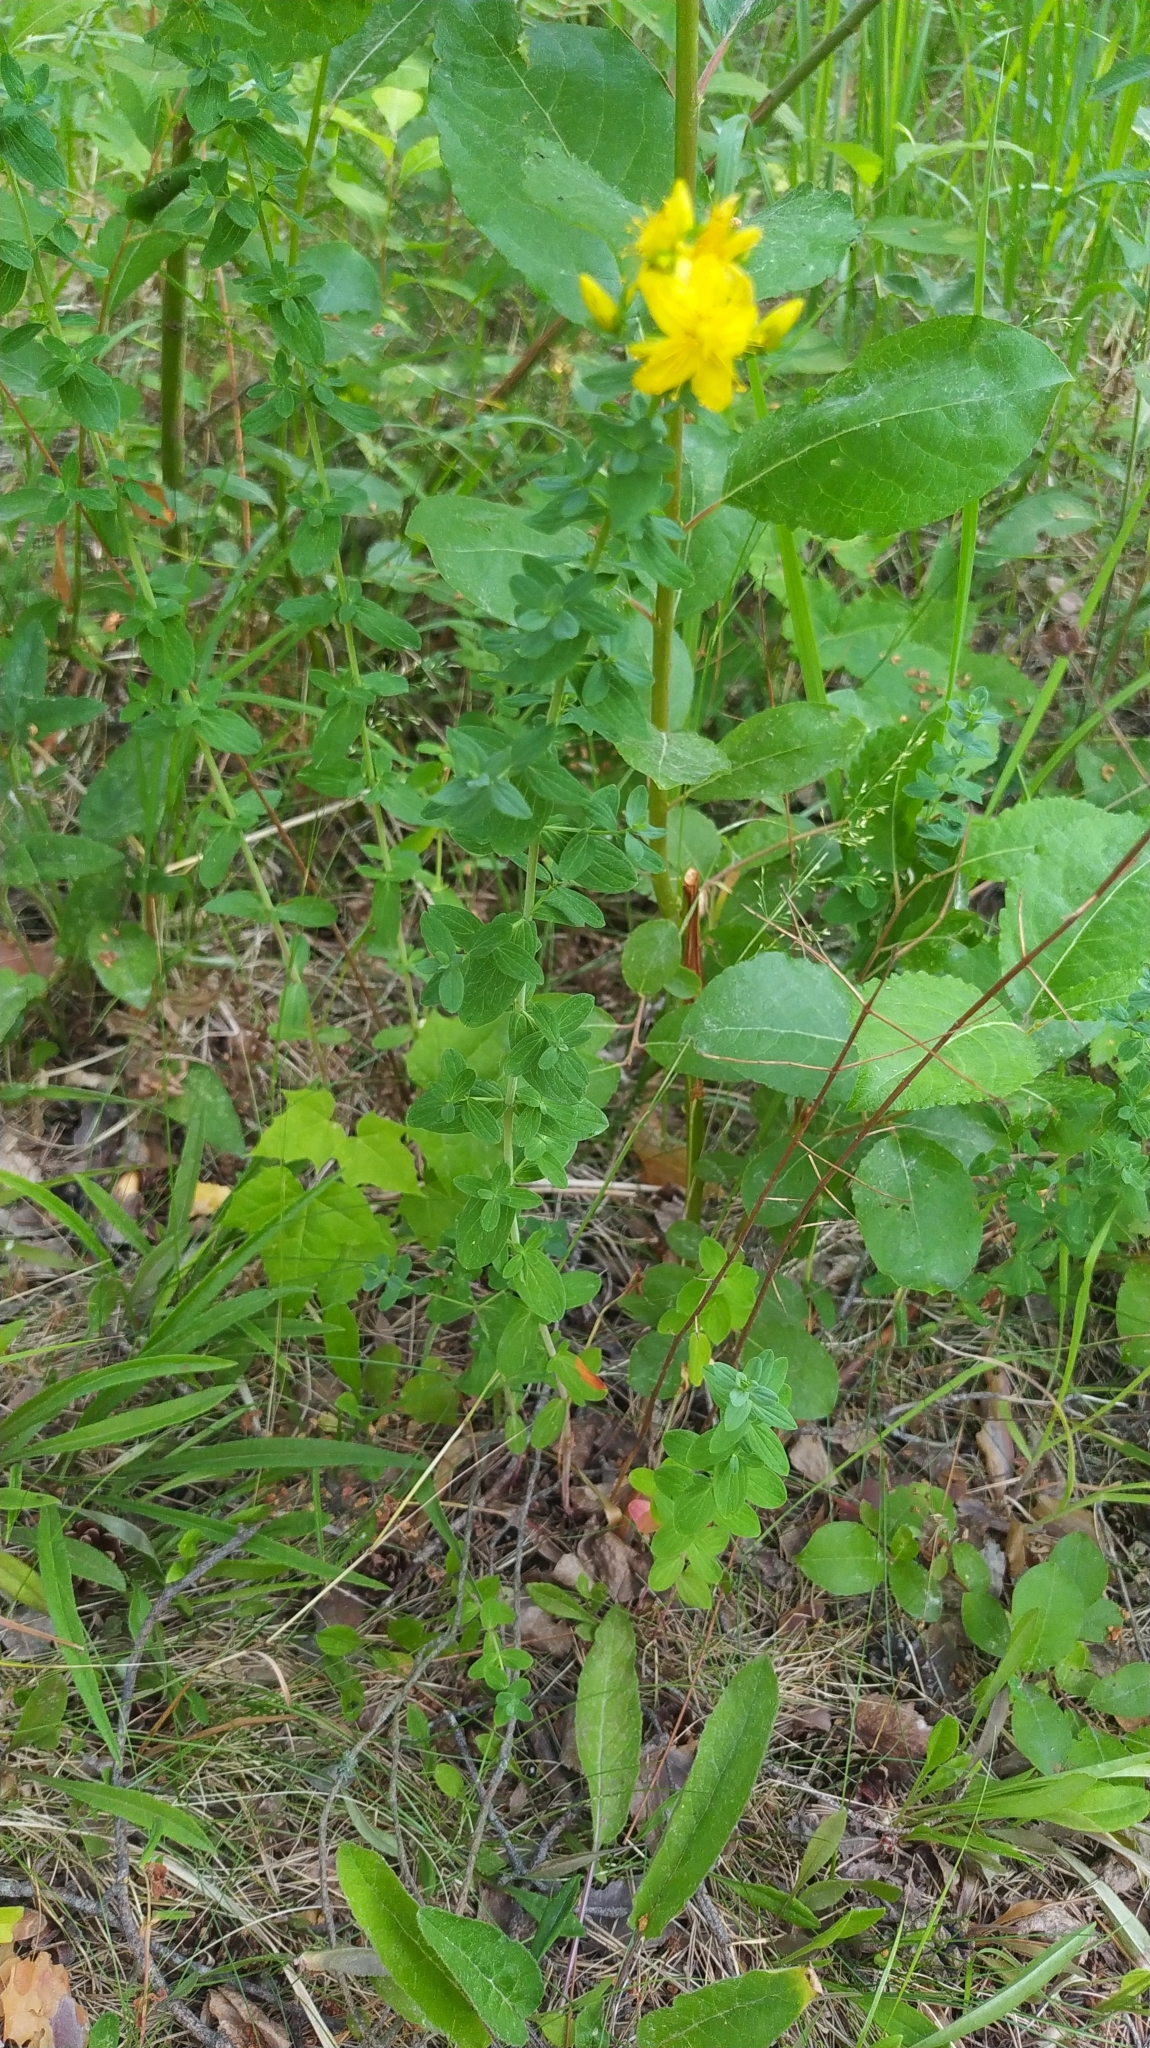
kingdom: Plantae
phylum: Tracheophyta
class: Magnoliopsida
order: Malpighiales
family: Hypericaceae
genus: Hypericum
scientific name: Hypericum perforatum
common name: Common st. johnswort
